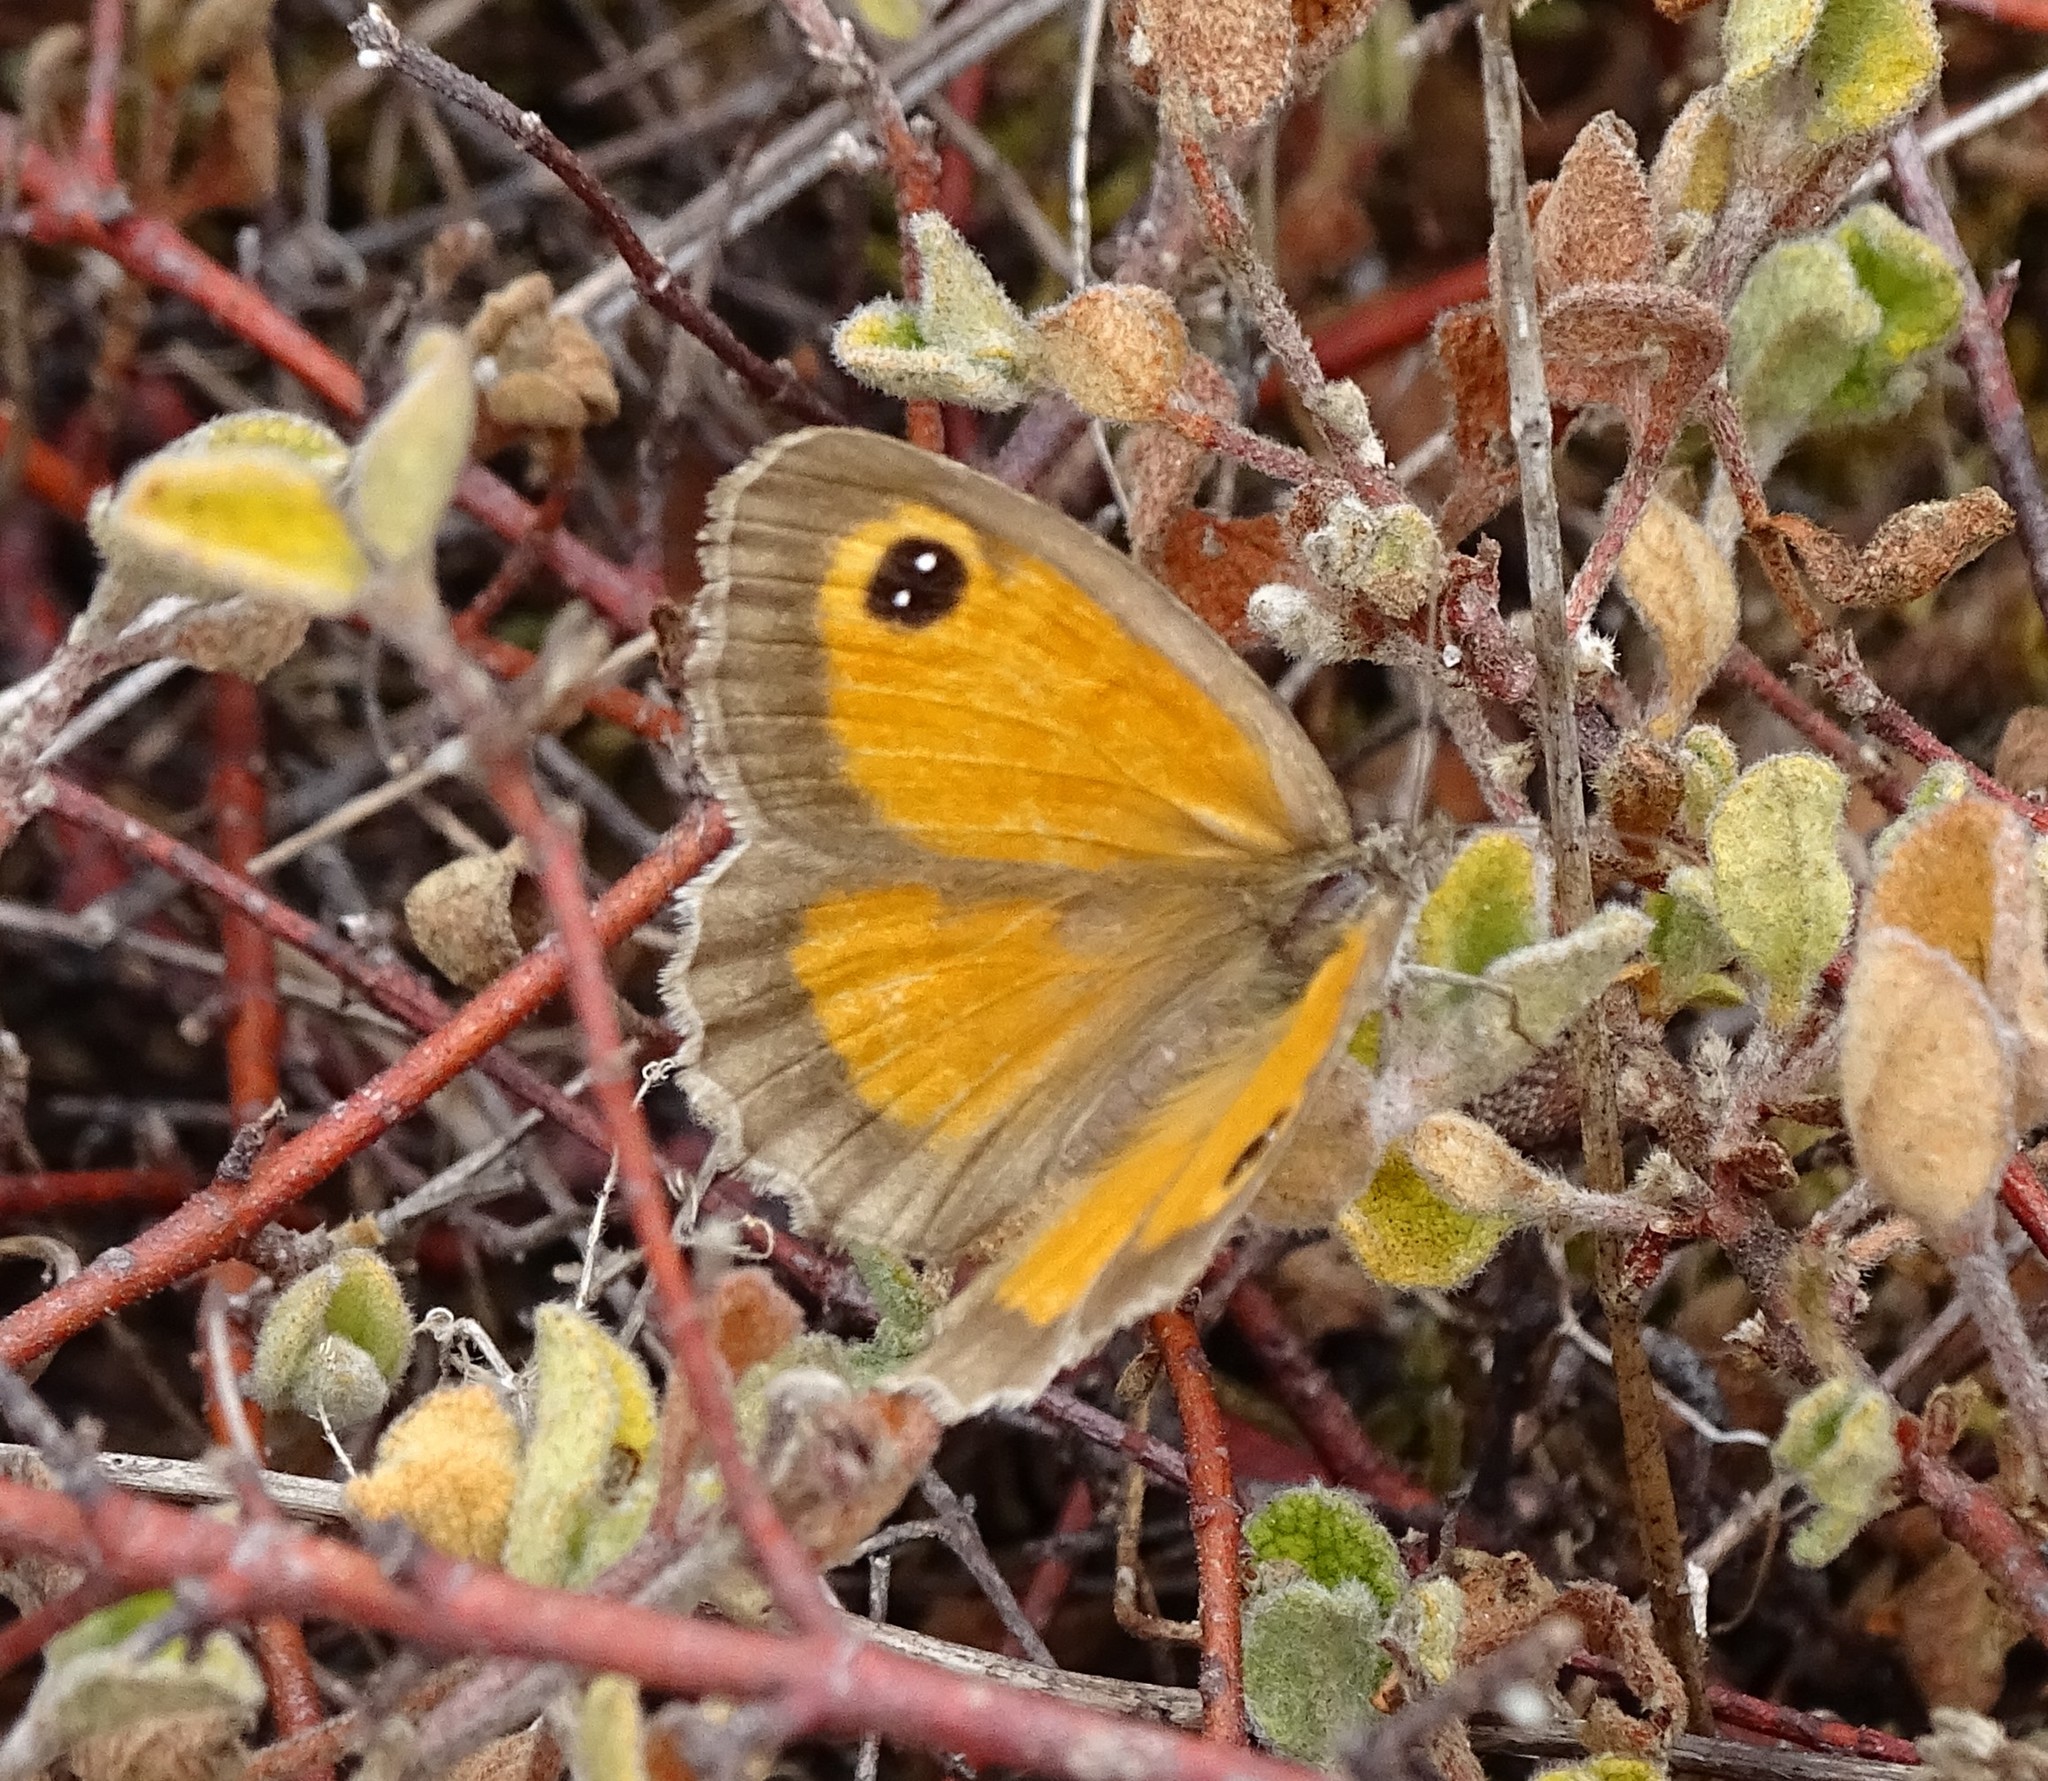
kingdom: Animalia
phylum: Arthropoda
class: Insecta
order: Lepidoptera
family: Nymphalidae
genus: Pyronia
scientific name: Pyronia cecilia
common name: Southern gatekeeper
